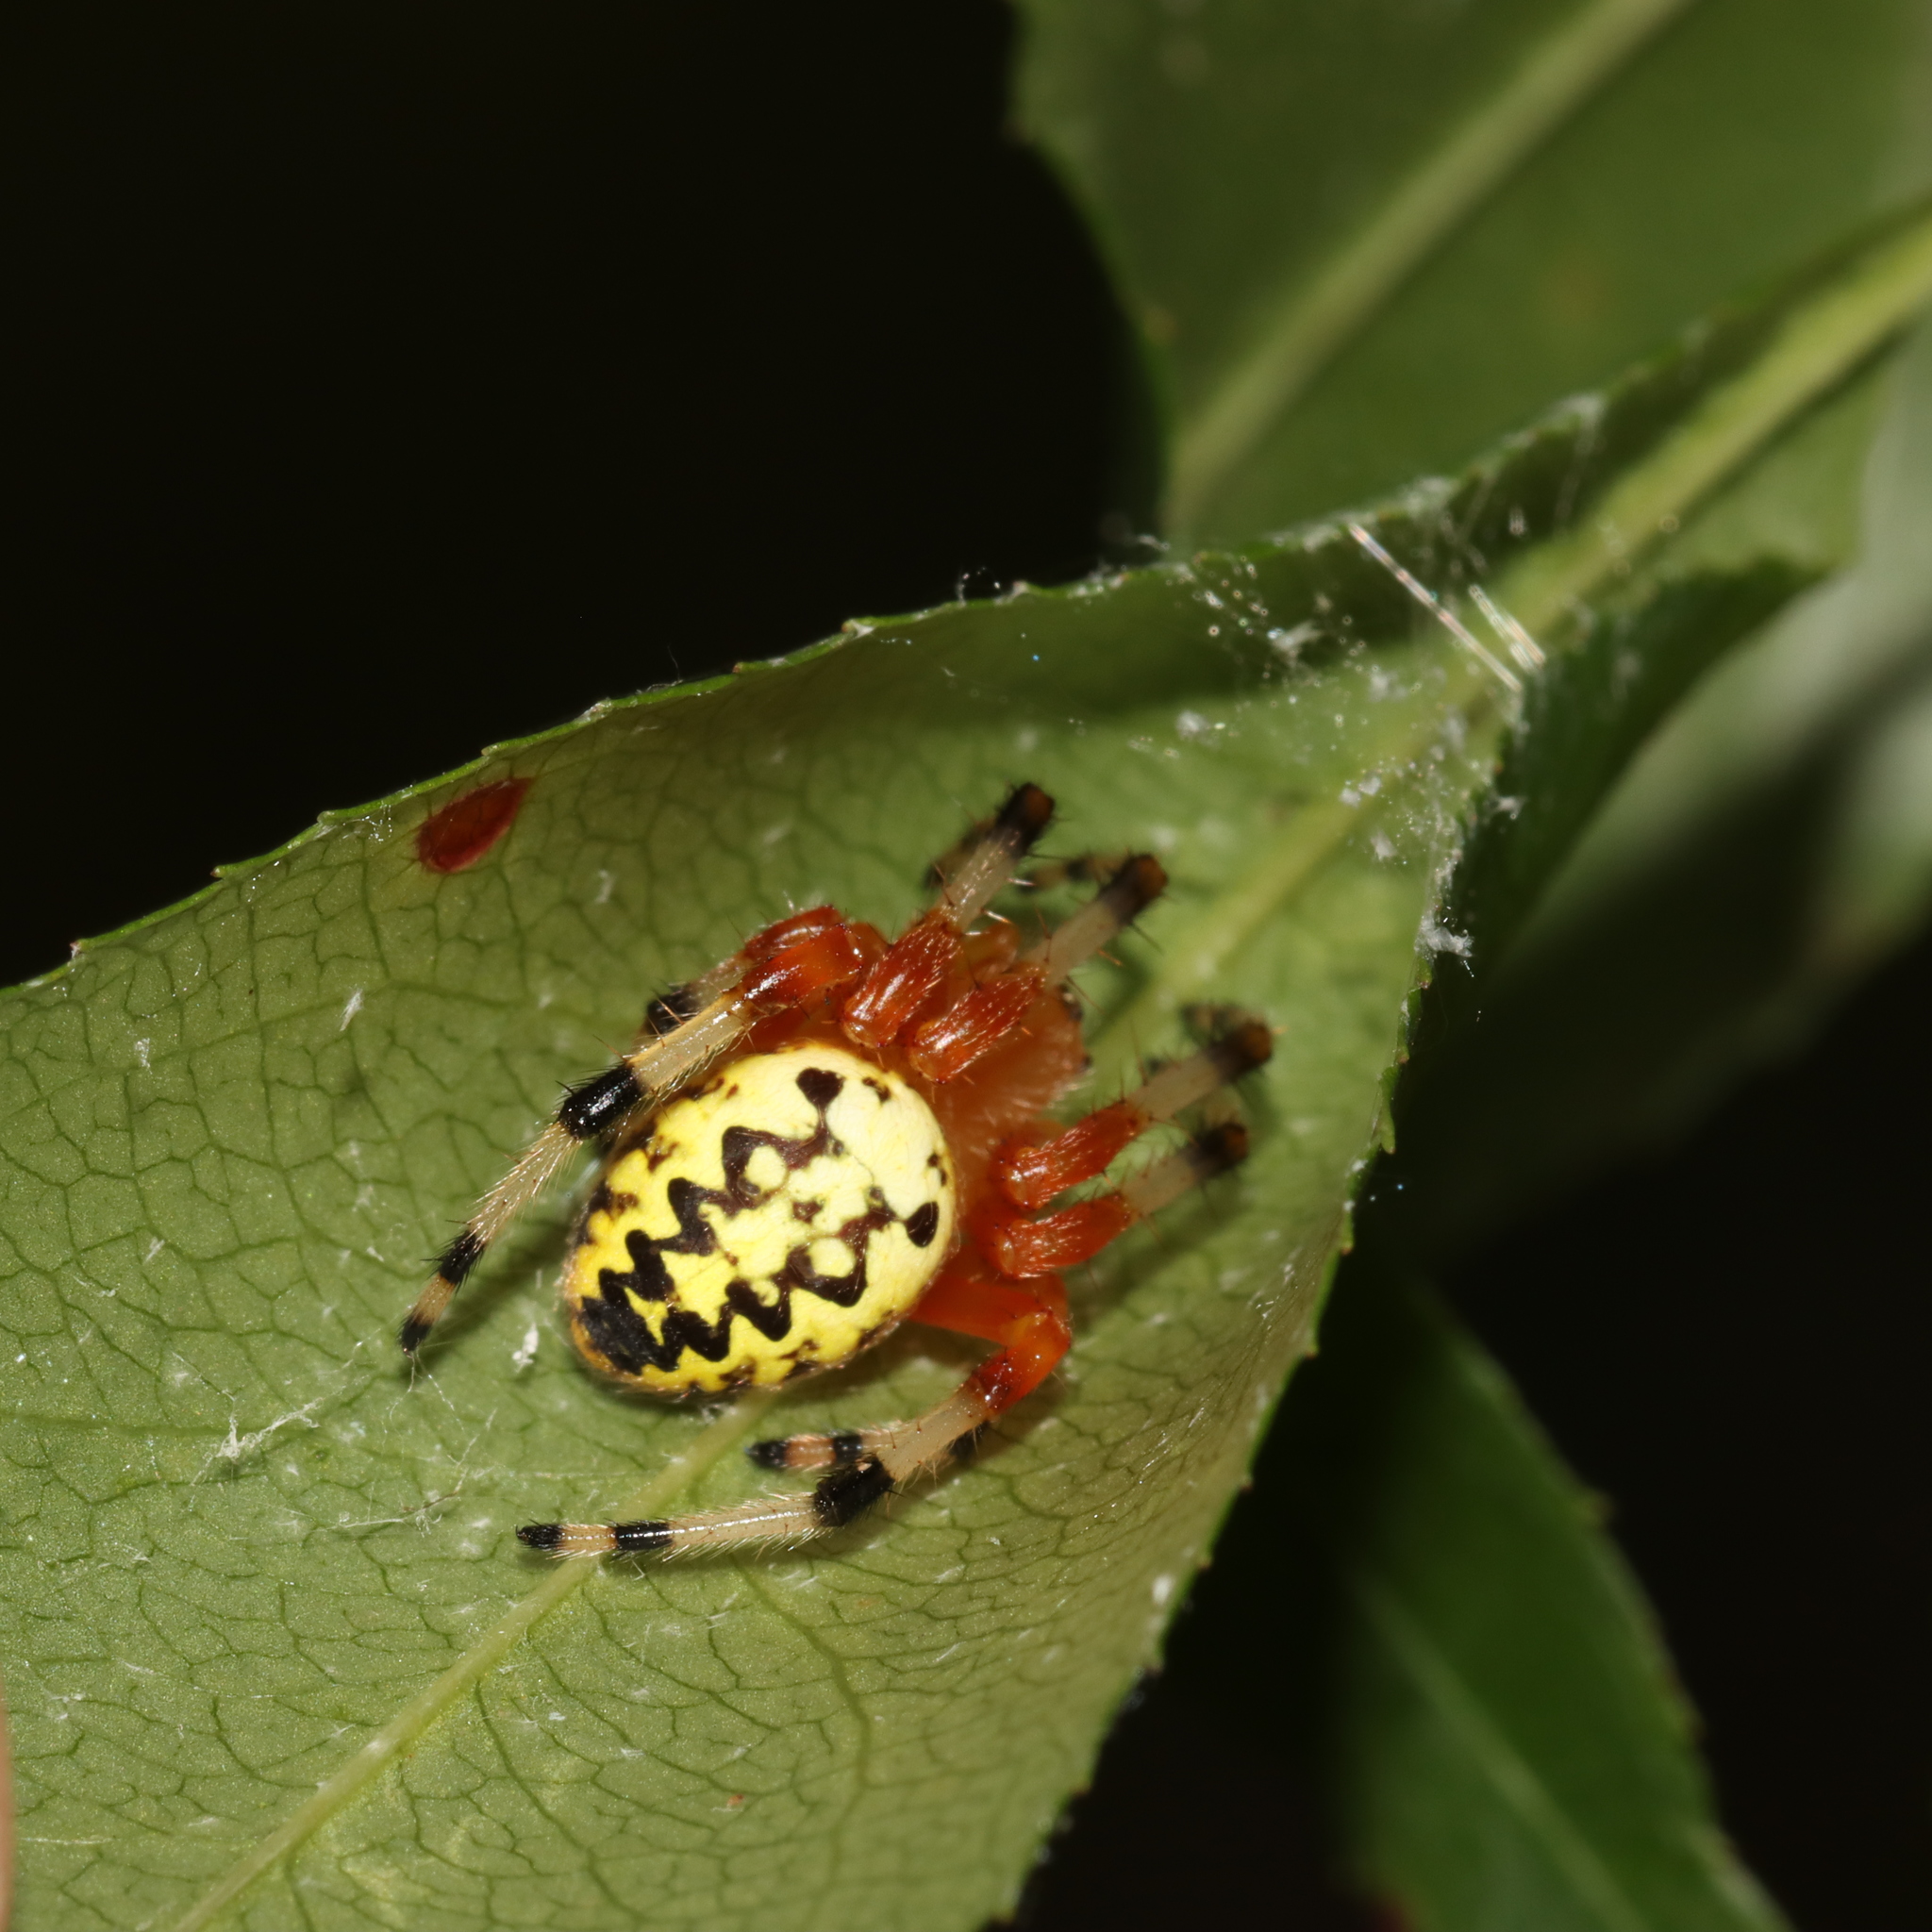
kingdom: Animalia
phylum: Arthropoda
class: Arachnida
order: Araneae
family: Araneidae
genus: Araneus
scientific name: Araneus marmoreus
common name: Marbled orbweaver
